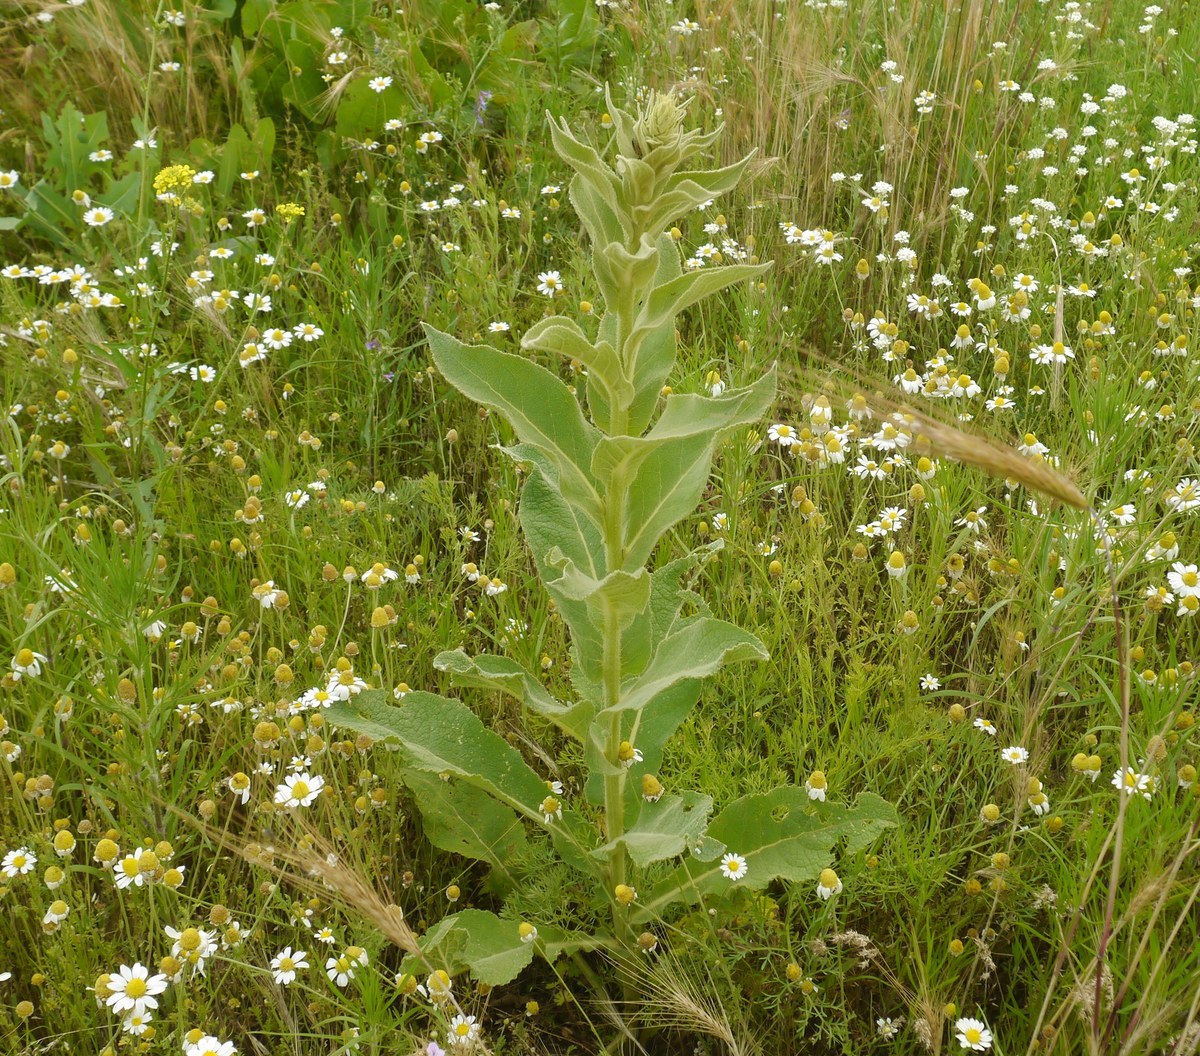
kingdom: Plantae
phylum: Tracheophyta
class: Magnoliopsida
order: Lamiales
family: Scrophulariaceae
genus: Verbascum
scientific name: Verbascum phlomoides
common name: Orange mullein
